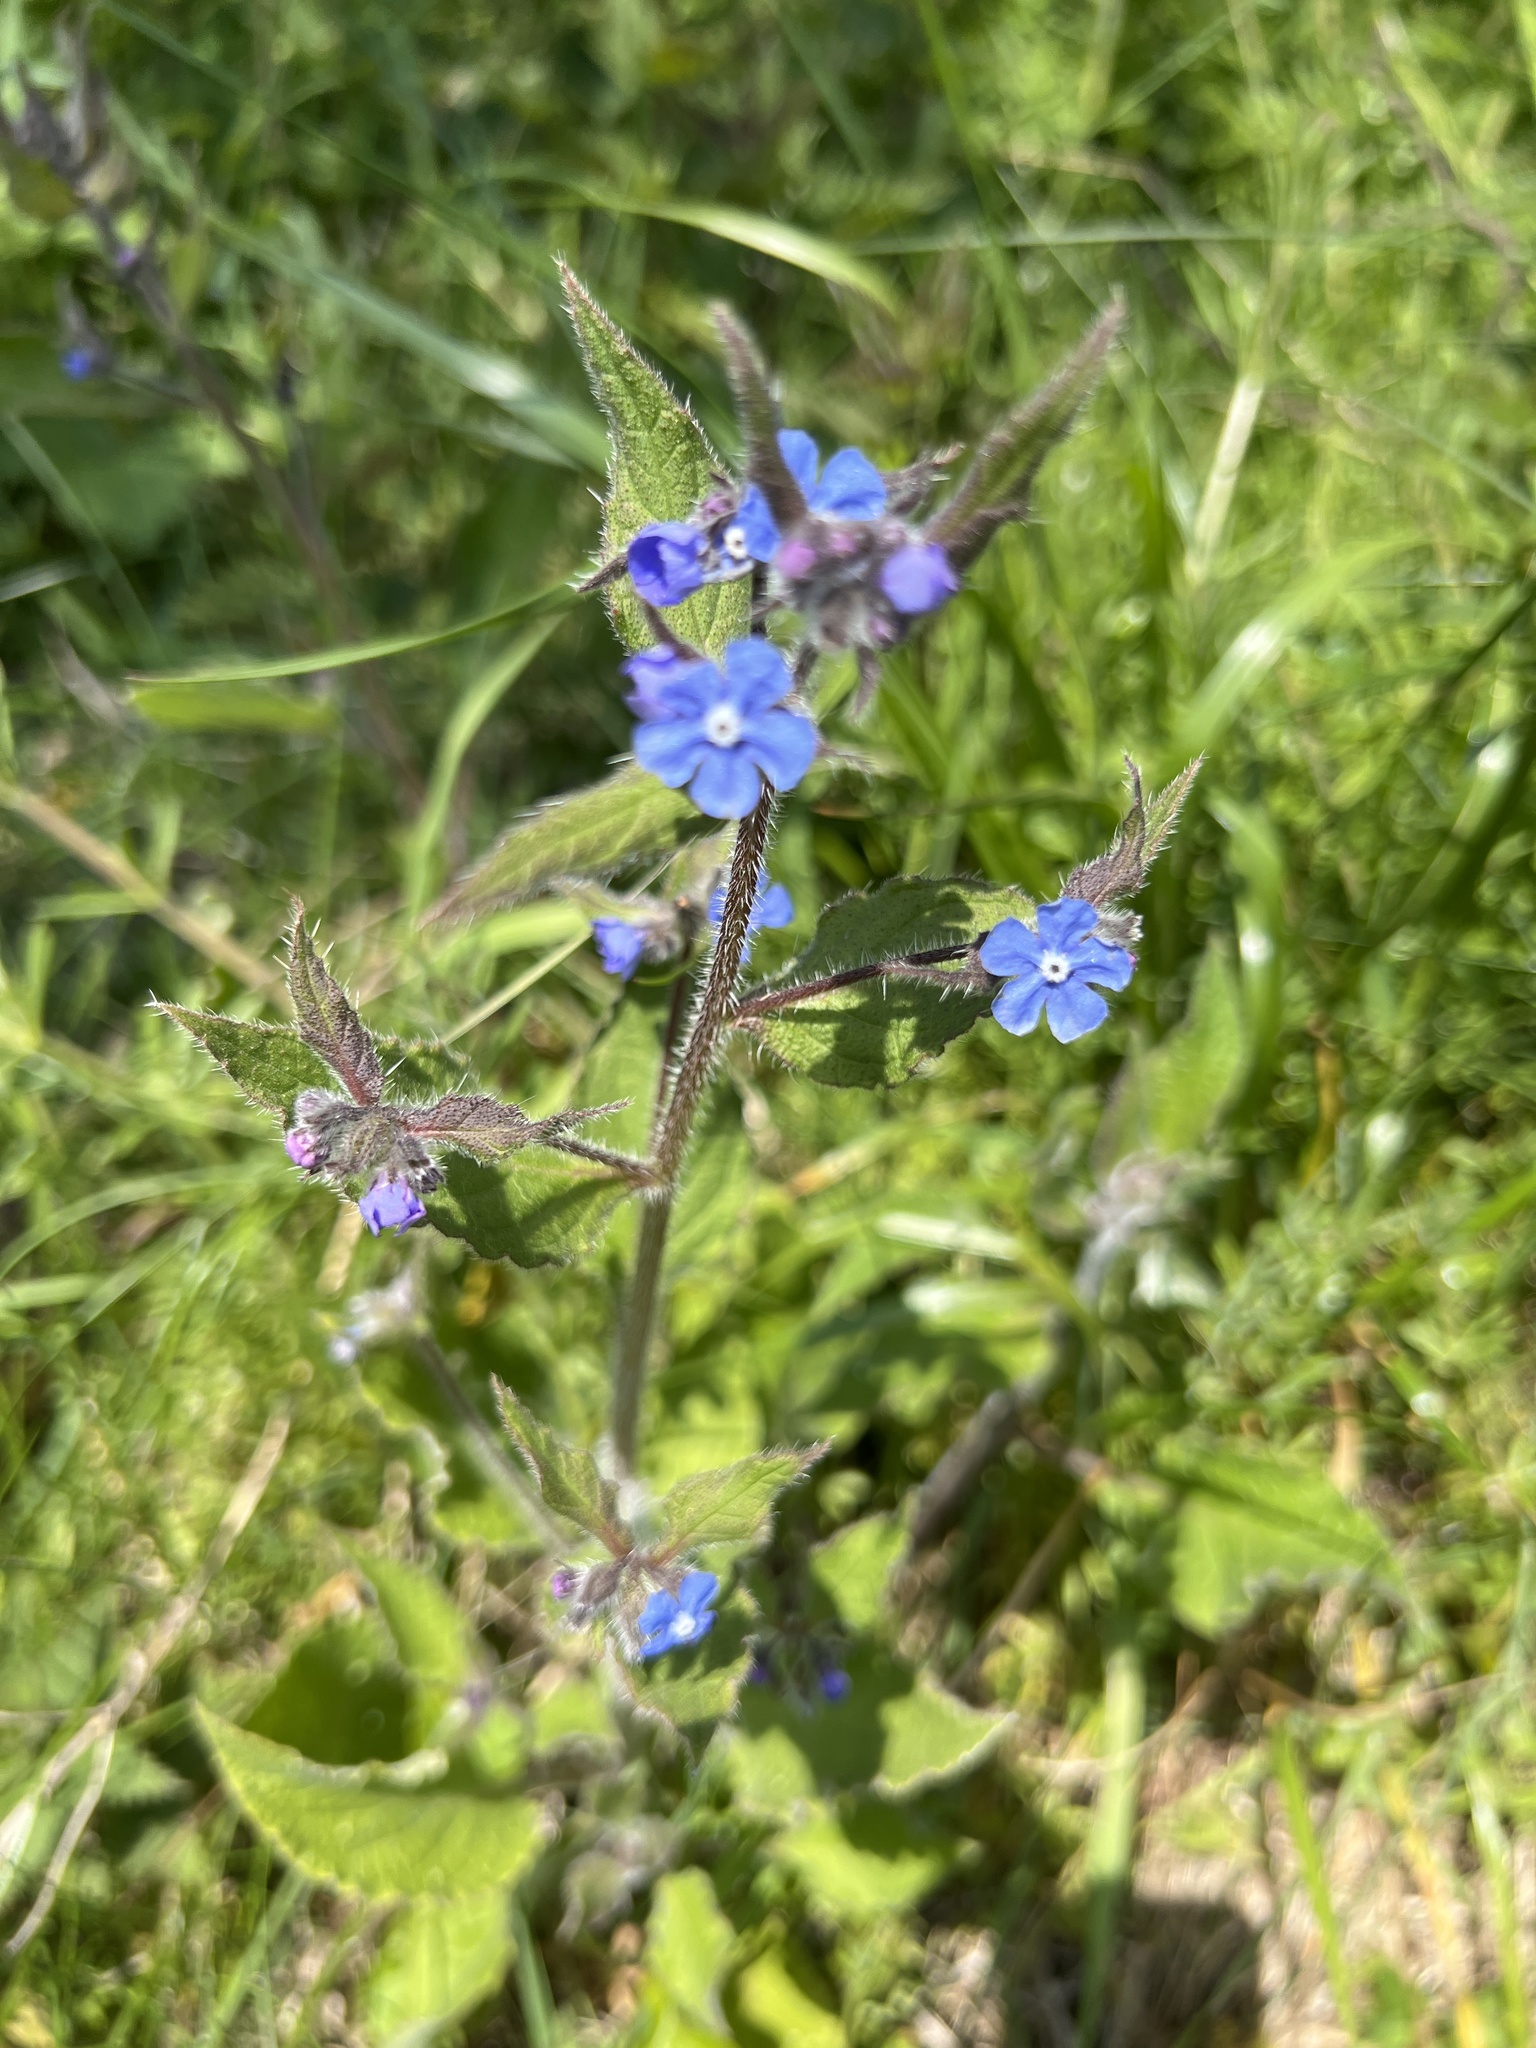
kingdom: Plantae
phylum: Tracheophyta
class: Magnoliopsida
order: Boraginales
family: Boraginaceae
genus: Pentaglottis
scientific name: Pentaglottis sempervirens
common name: Green alkanet
